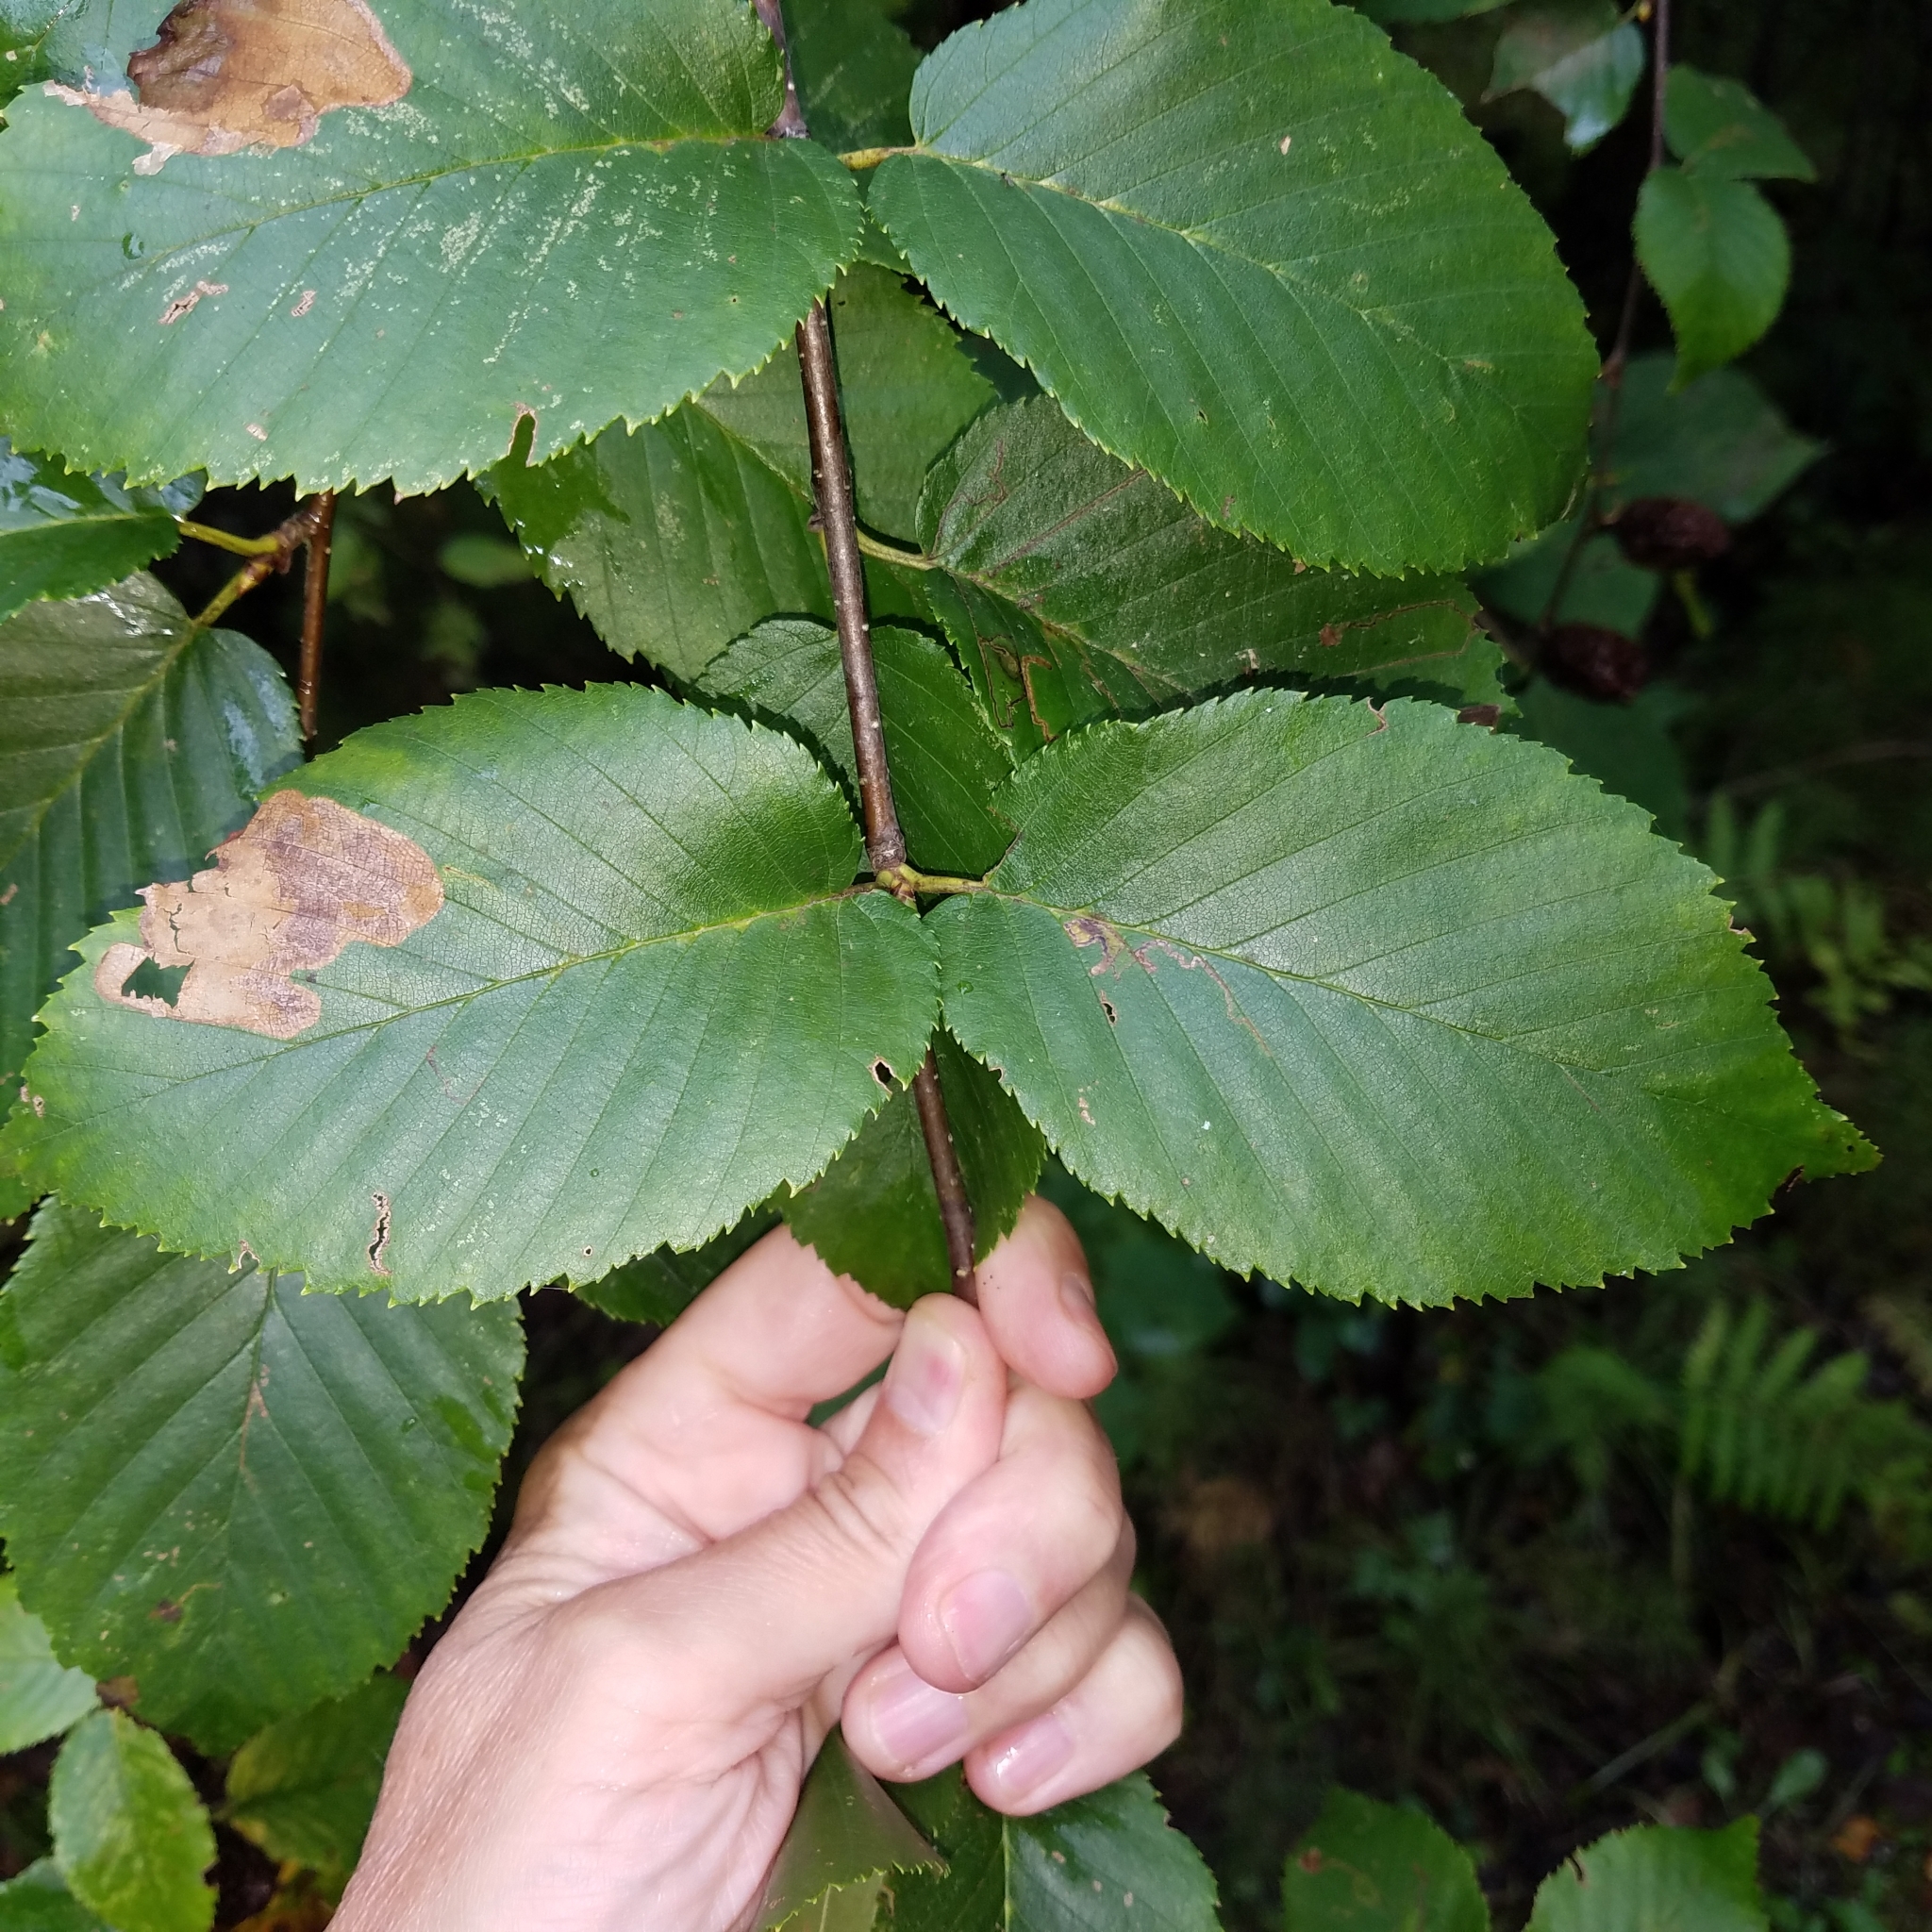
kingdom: Plantae
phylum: Tracheophyta
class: Magnoliopsida
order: Fagales
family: Betulaceae
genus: Betula
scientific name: Betula alleghaniensis
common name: Yellow birch
